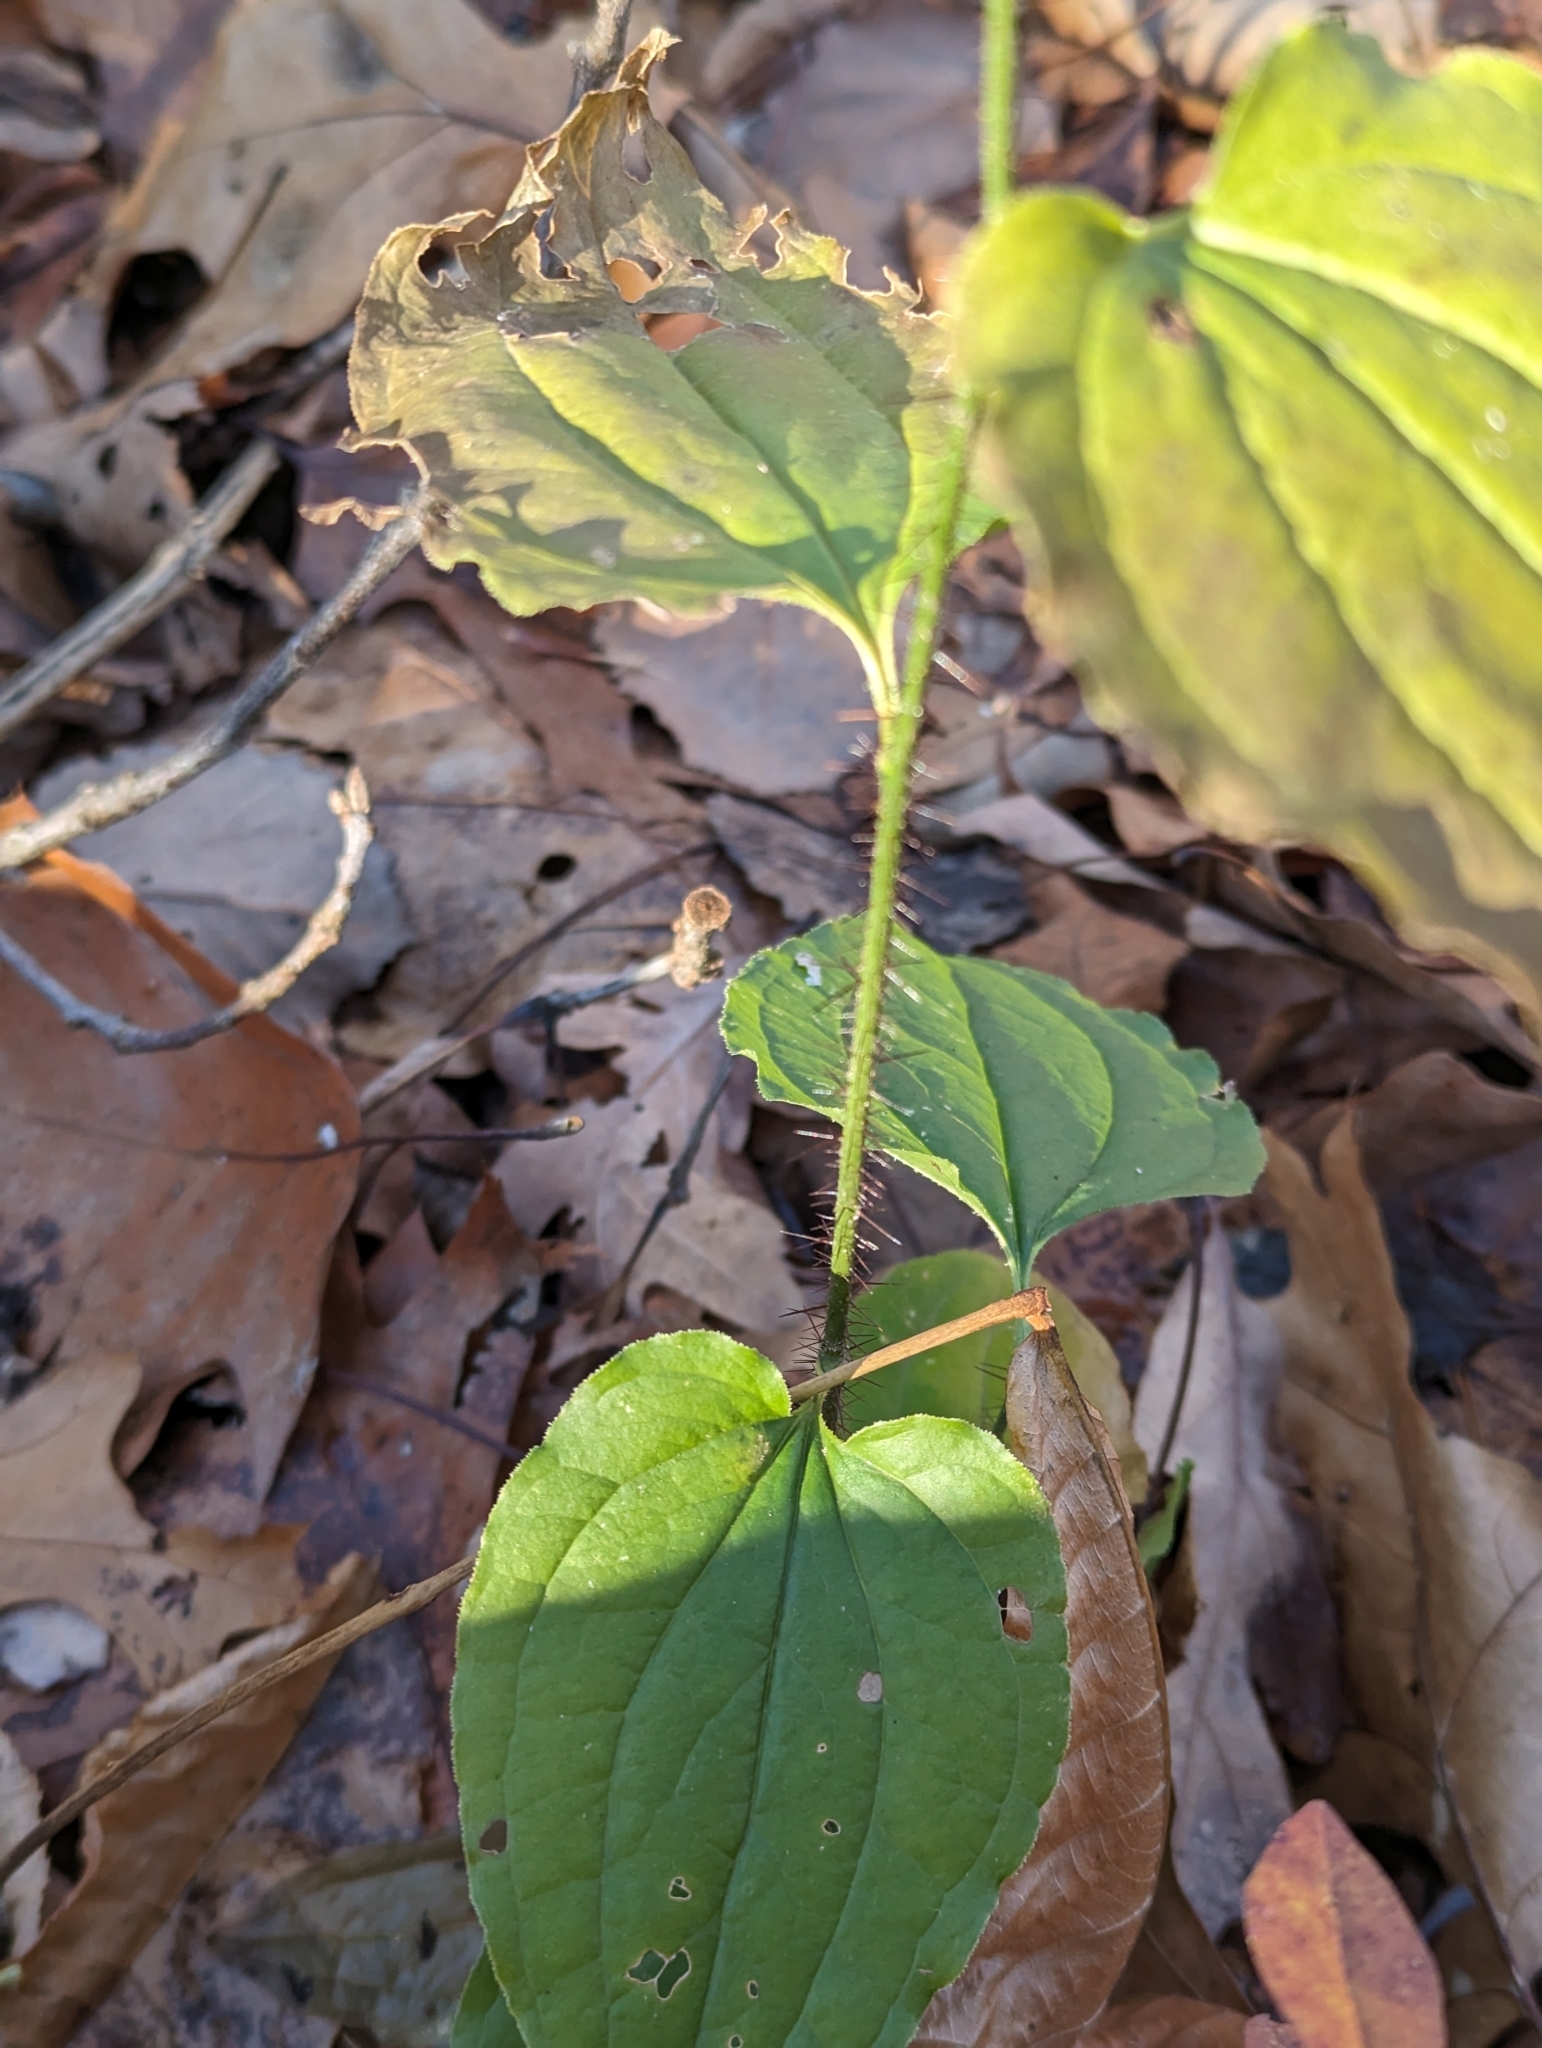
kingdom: Plantae
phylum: Tracheophyta
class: Liliopsida
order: Liliales
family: Smilacaceae
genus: Smilax
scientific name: Smilax tamnoides
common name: Hellfetter
